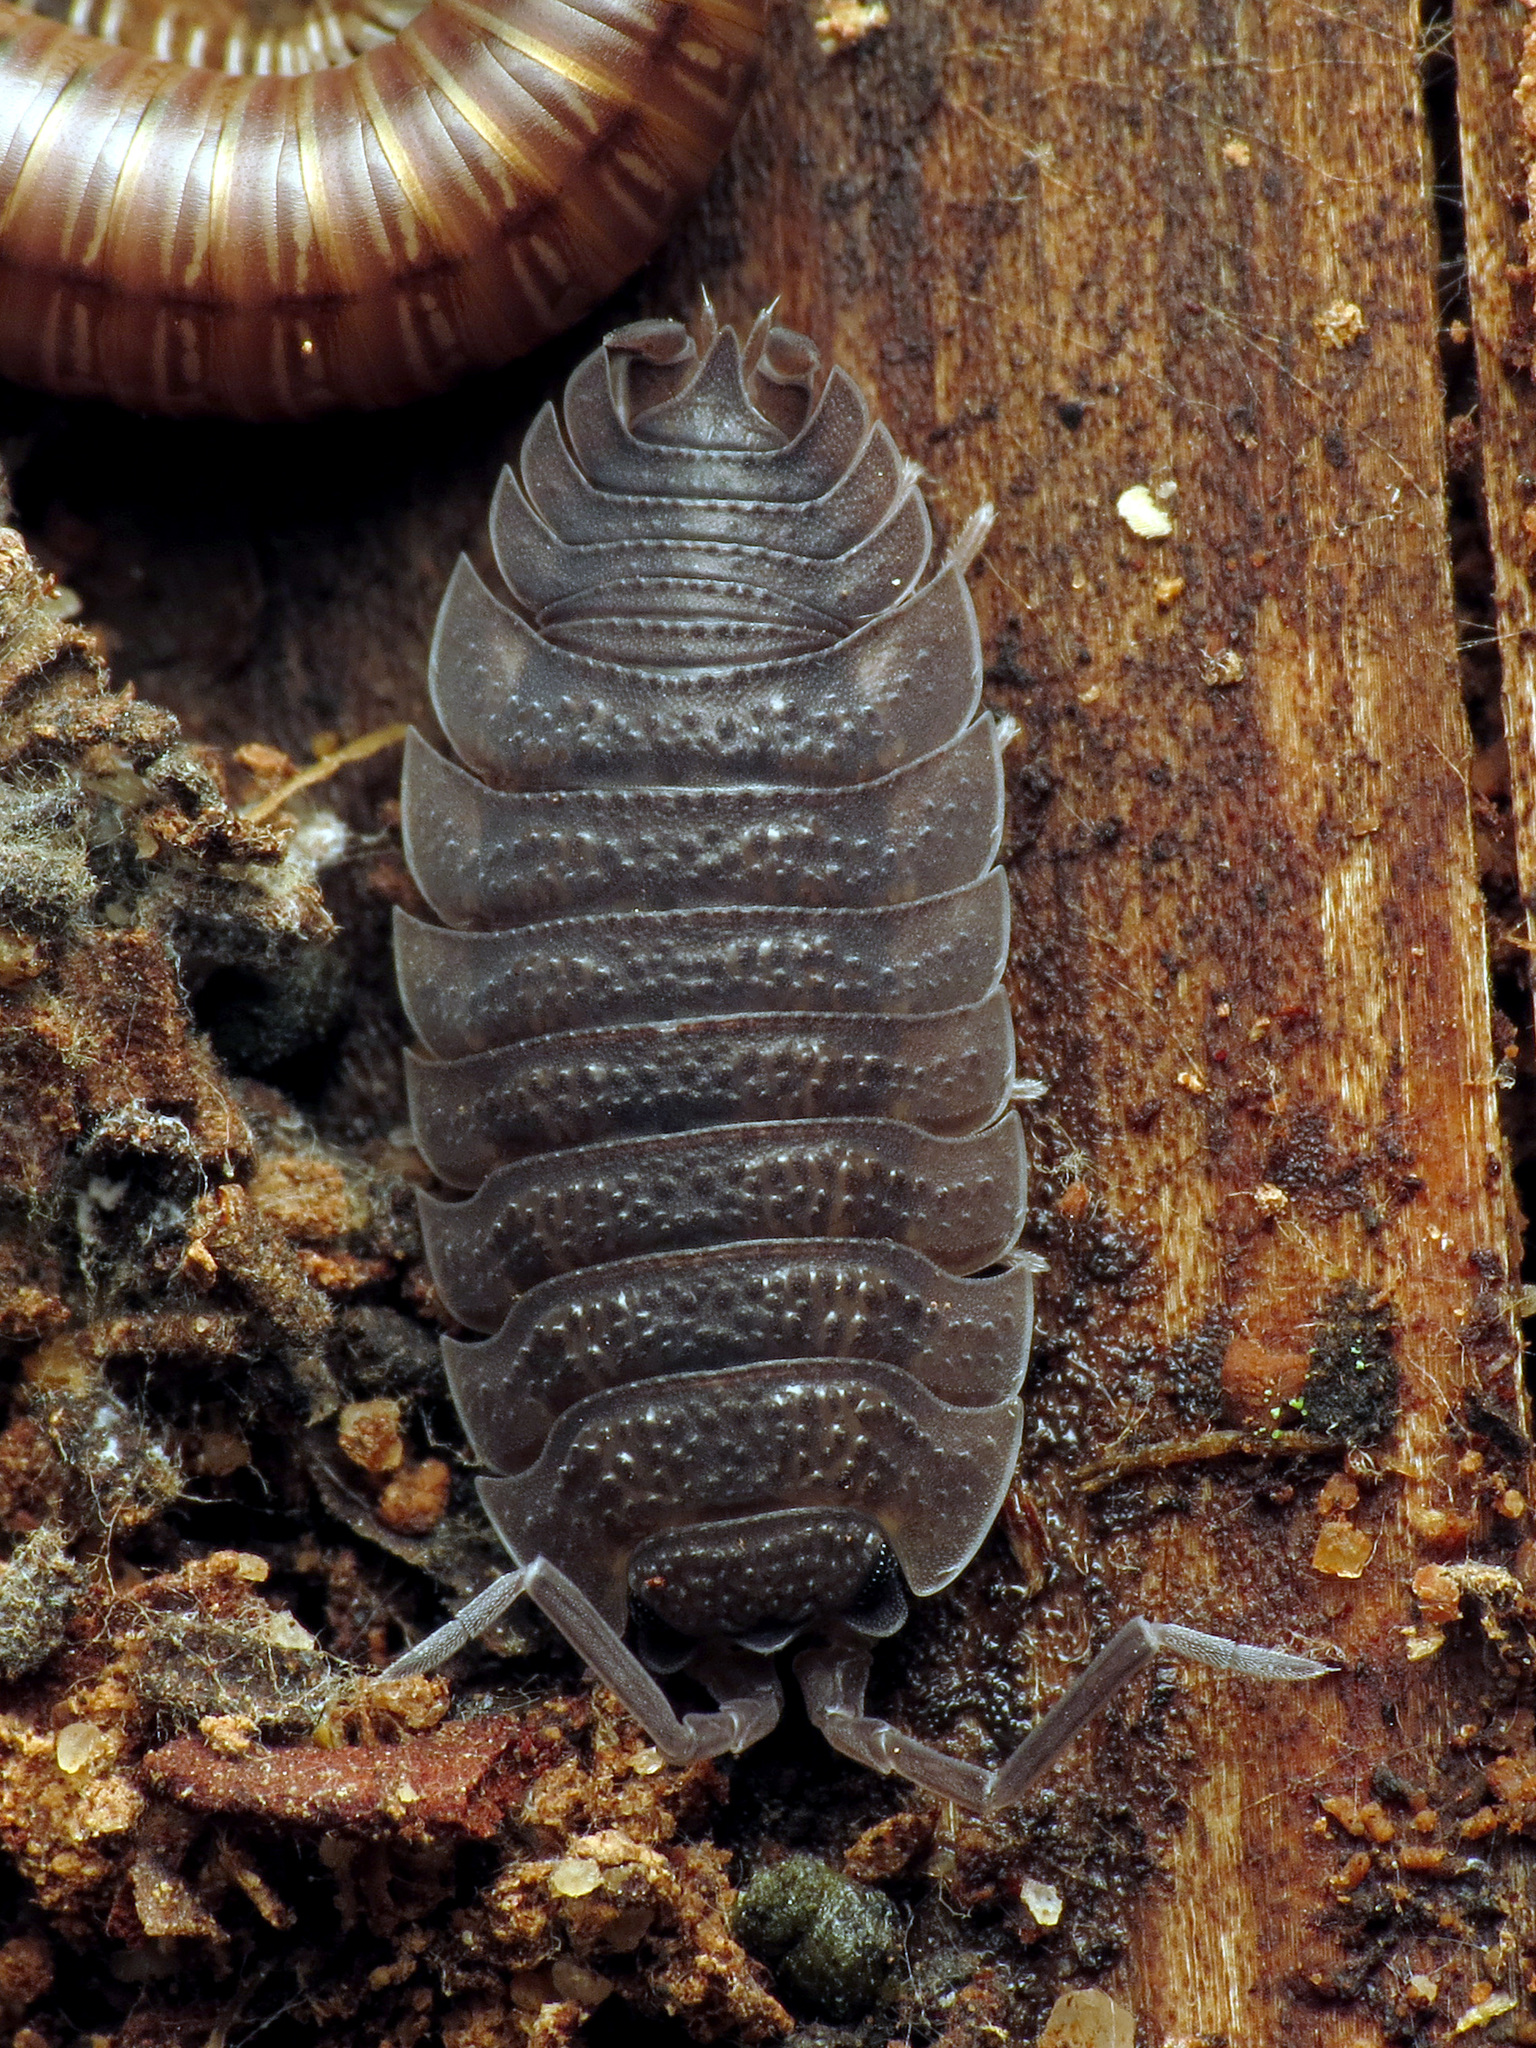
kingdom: Animalia
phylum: Arthropoda
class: Malacostraca
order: Isopoda
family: Porcellionidae
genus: Porcellio
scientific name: Porcellio scaber
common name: Common rough woodlouse
